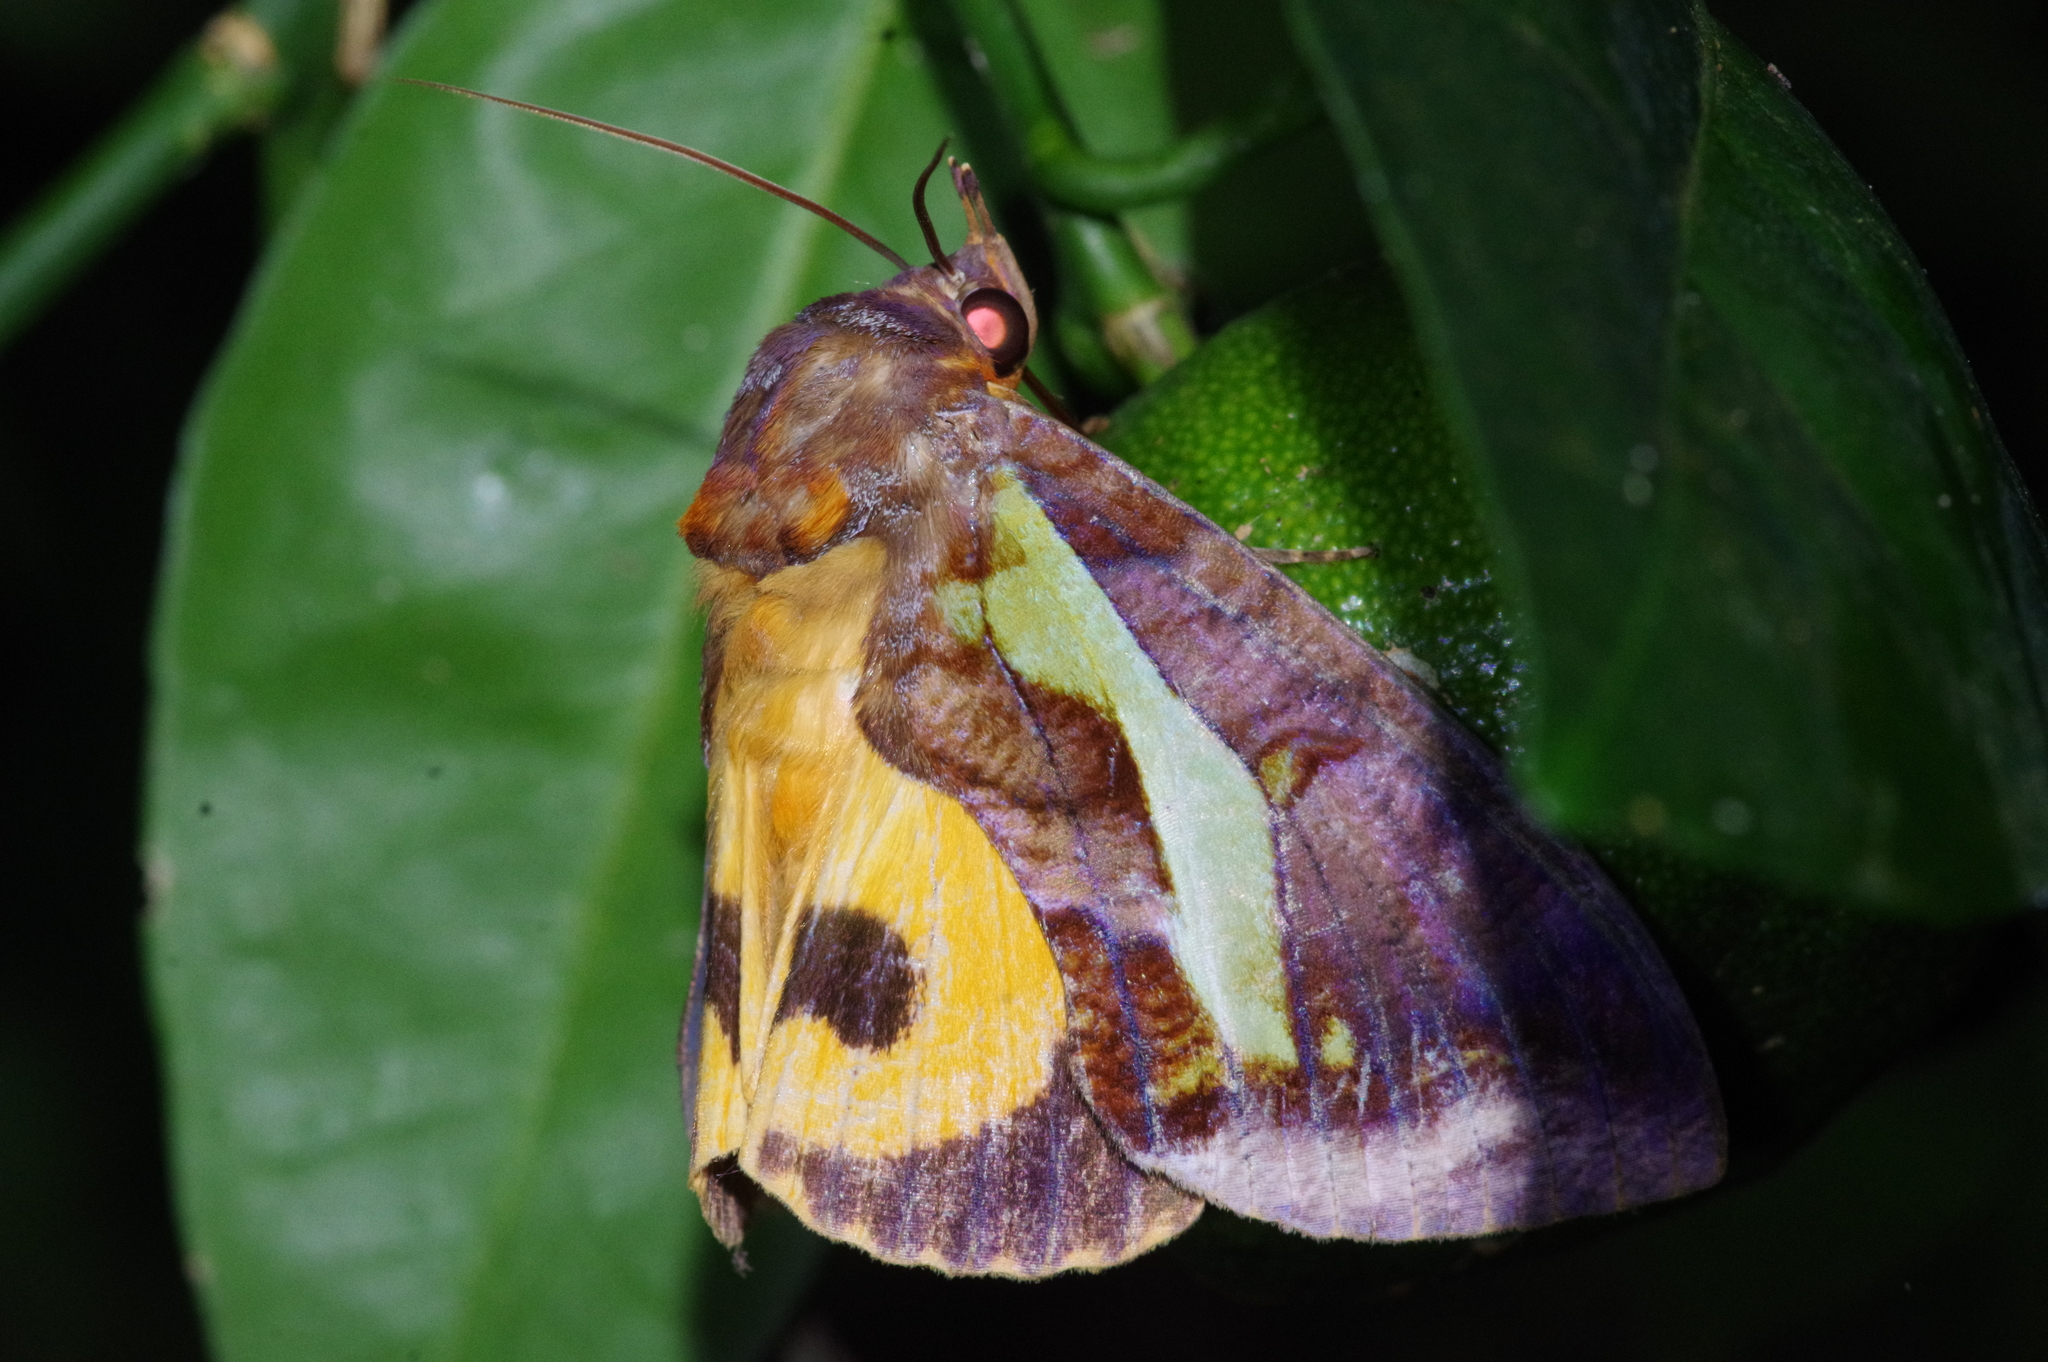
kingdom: Animalia
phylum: Arthropoda
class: Insecta
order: Lepidoptera
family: Erebidae
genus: Eudocima
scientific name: Eudocima homaena
